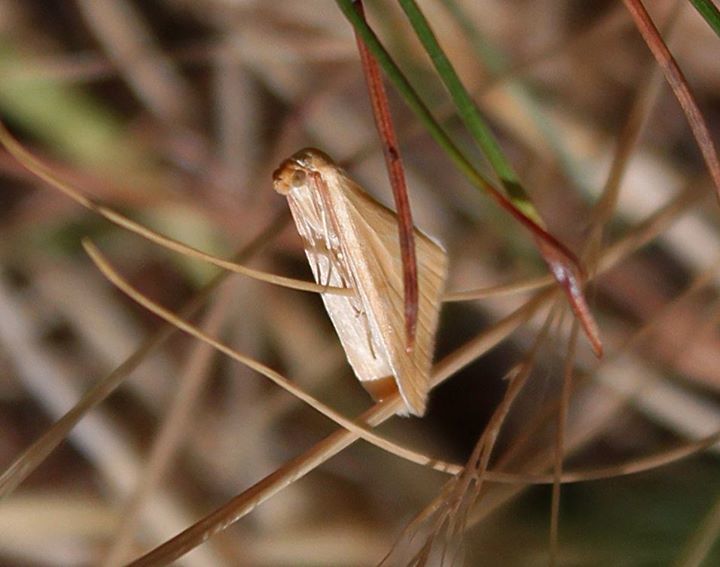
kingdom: Animalia
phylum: Arthropoda
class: Insecta
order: Lepidoptera
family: Geometridae
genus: Rhodometra
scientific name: Rhodometra sacraria
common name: Vestal
